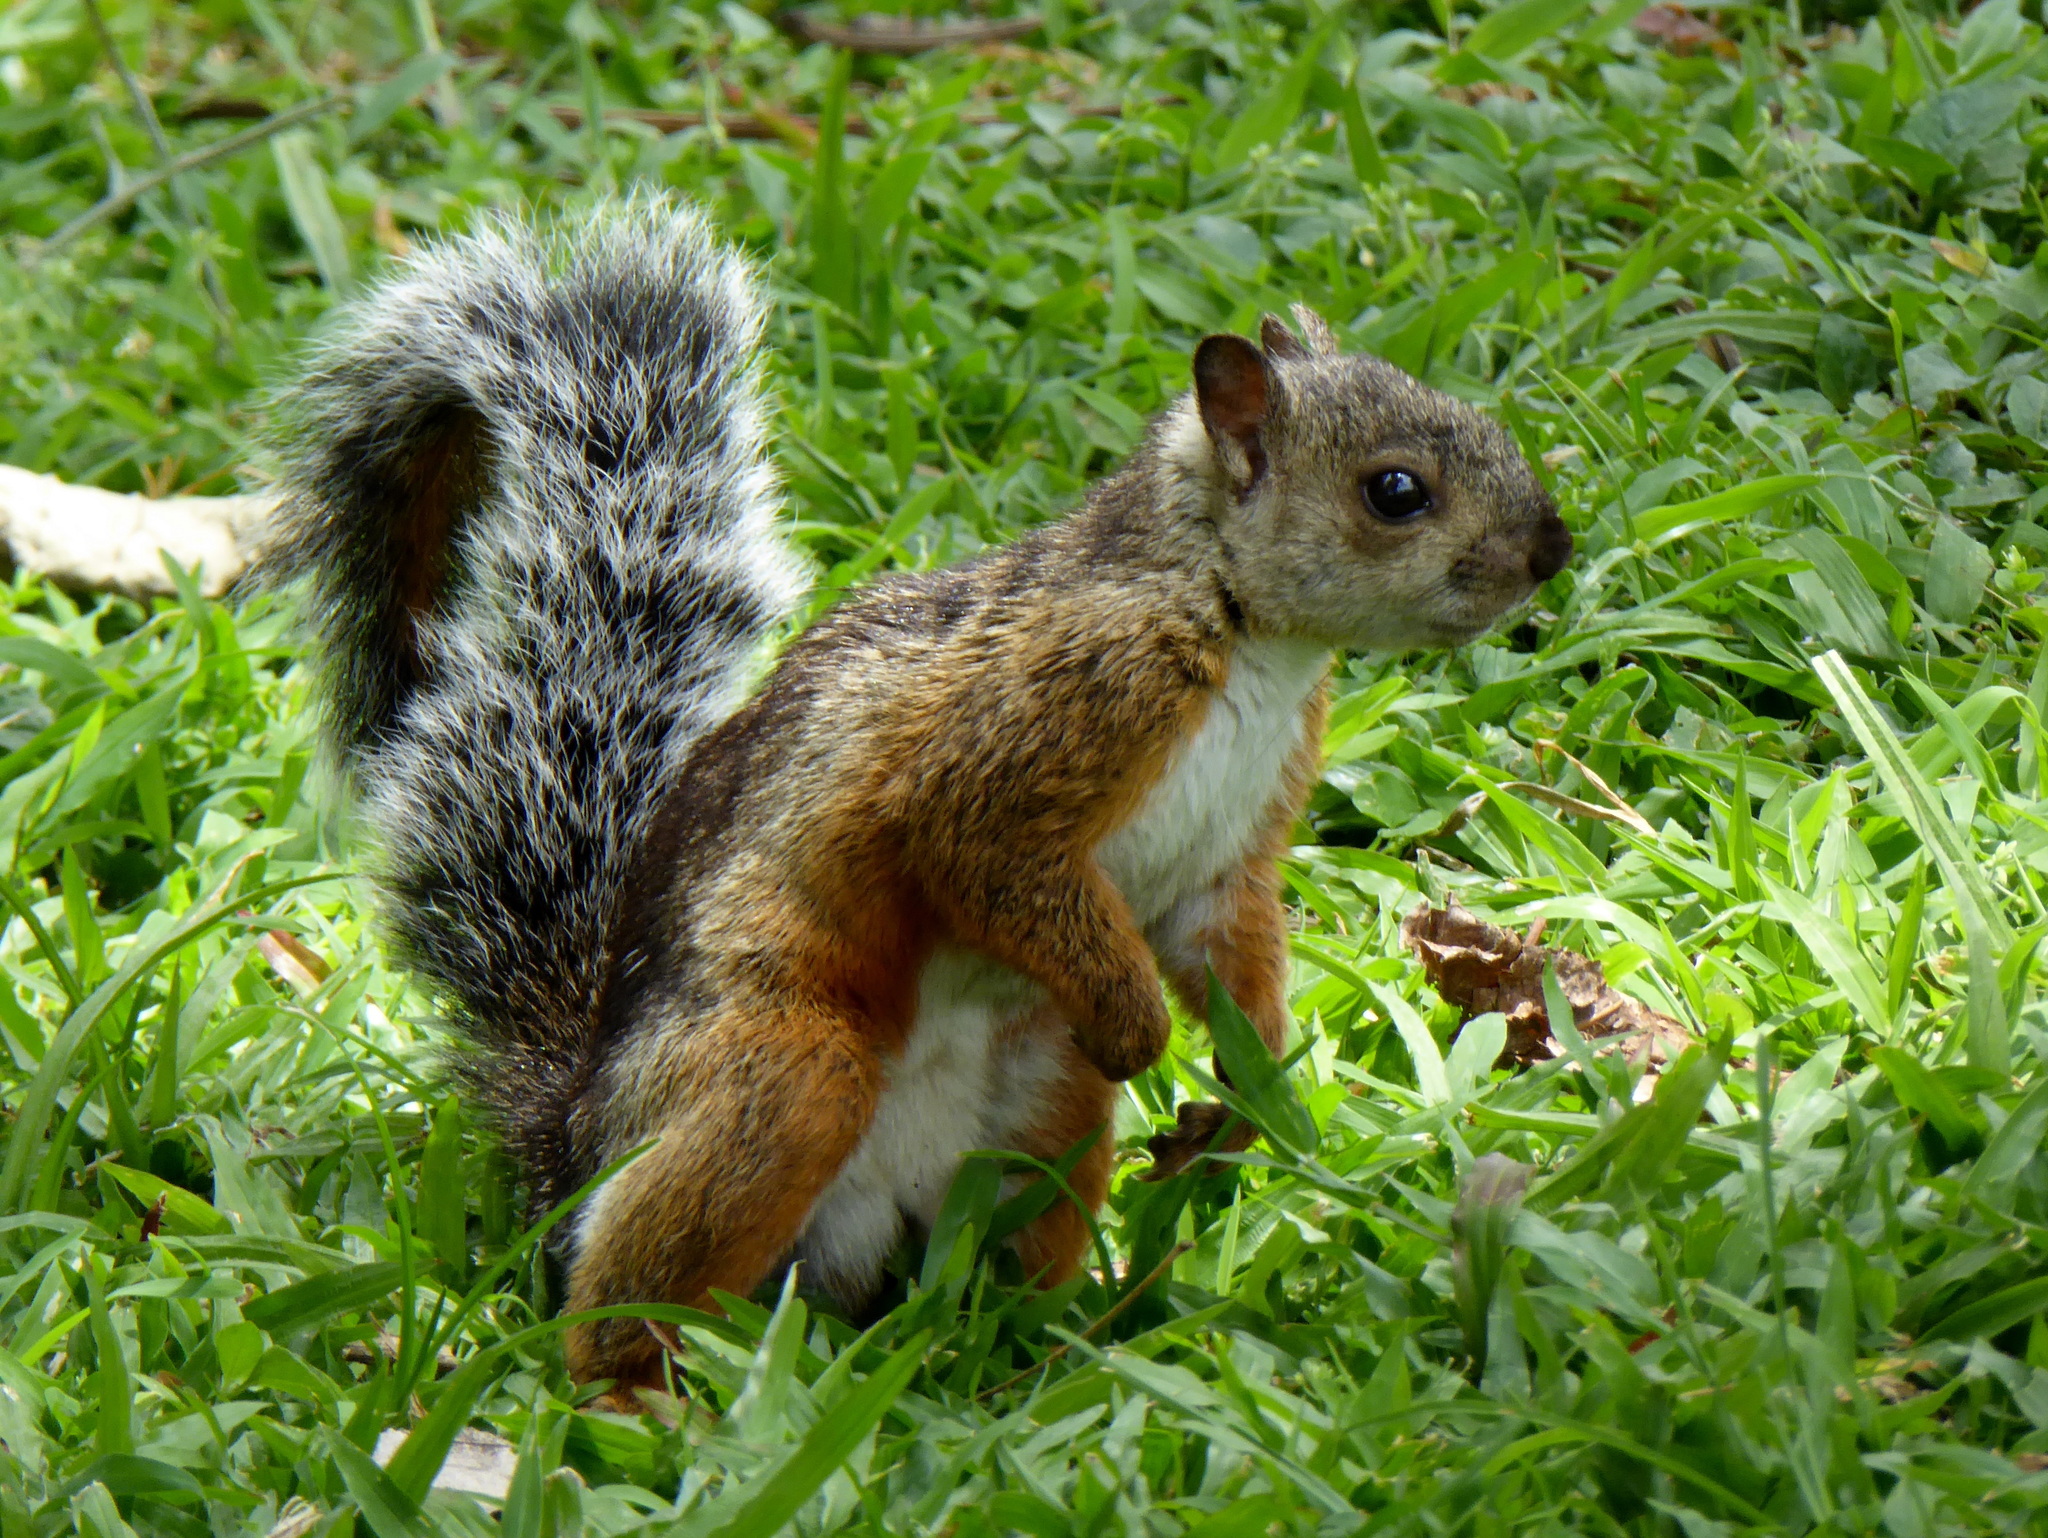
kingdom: Animalia
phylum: Chordata
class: Mammalia
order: Rodentia
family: Sciuridae
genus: Sciurus
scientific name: Sciurus variegatoides
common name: Variegated squirrel
